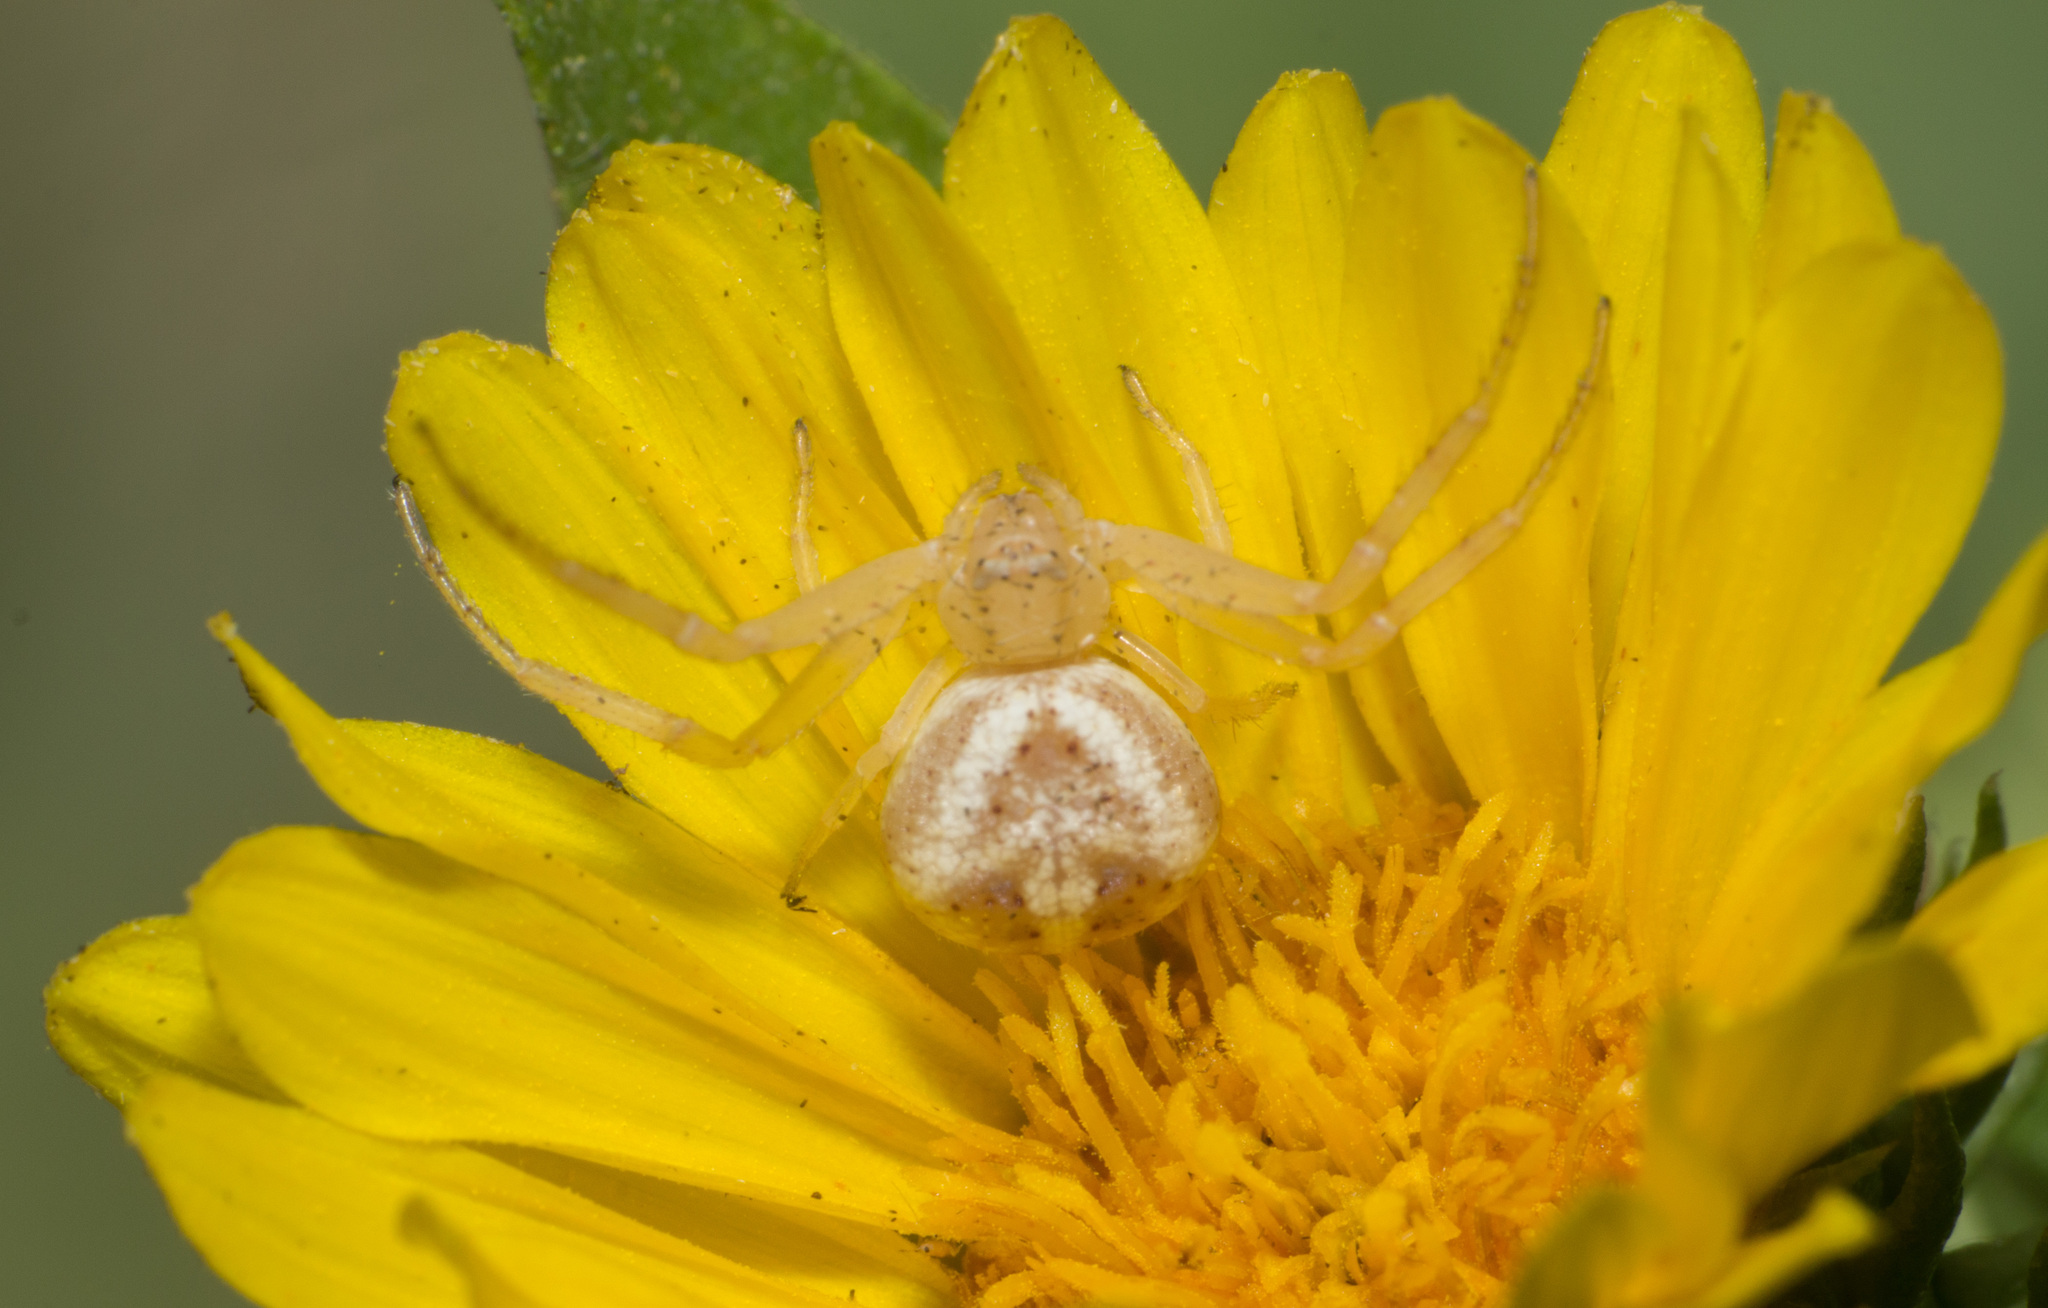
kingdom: Animalia
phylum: Arthropoda
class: Arachnida
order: Araneae
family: Thomisidae
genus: Misumenops
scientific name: Misumenops
